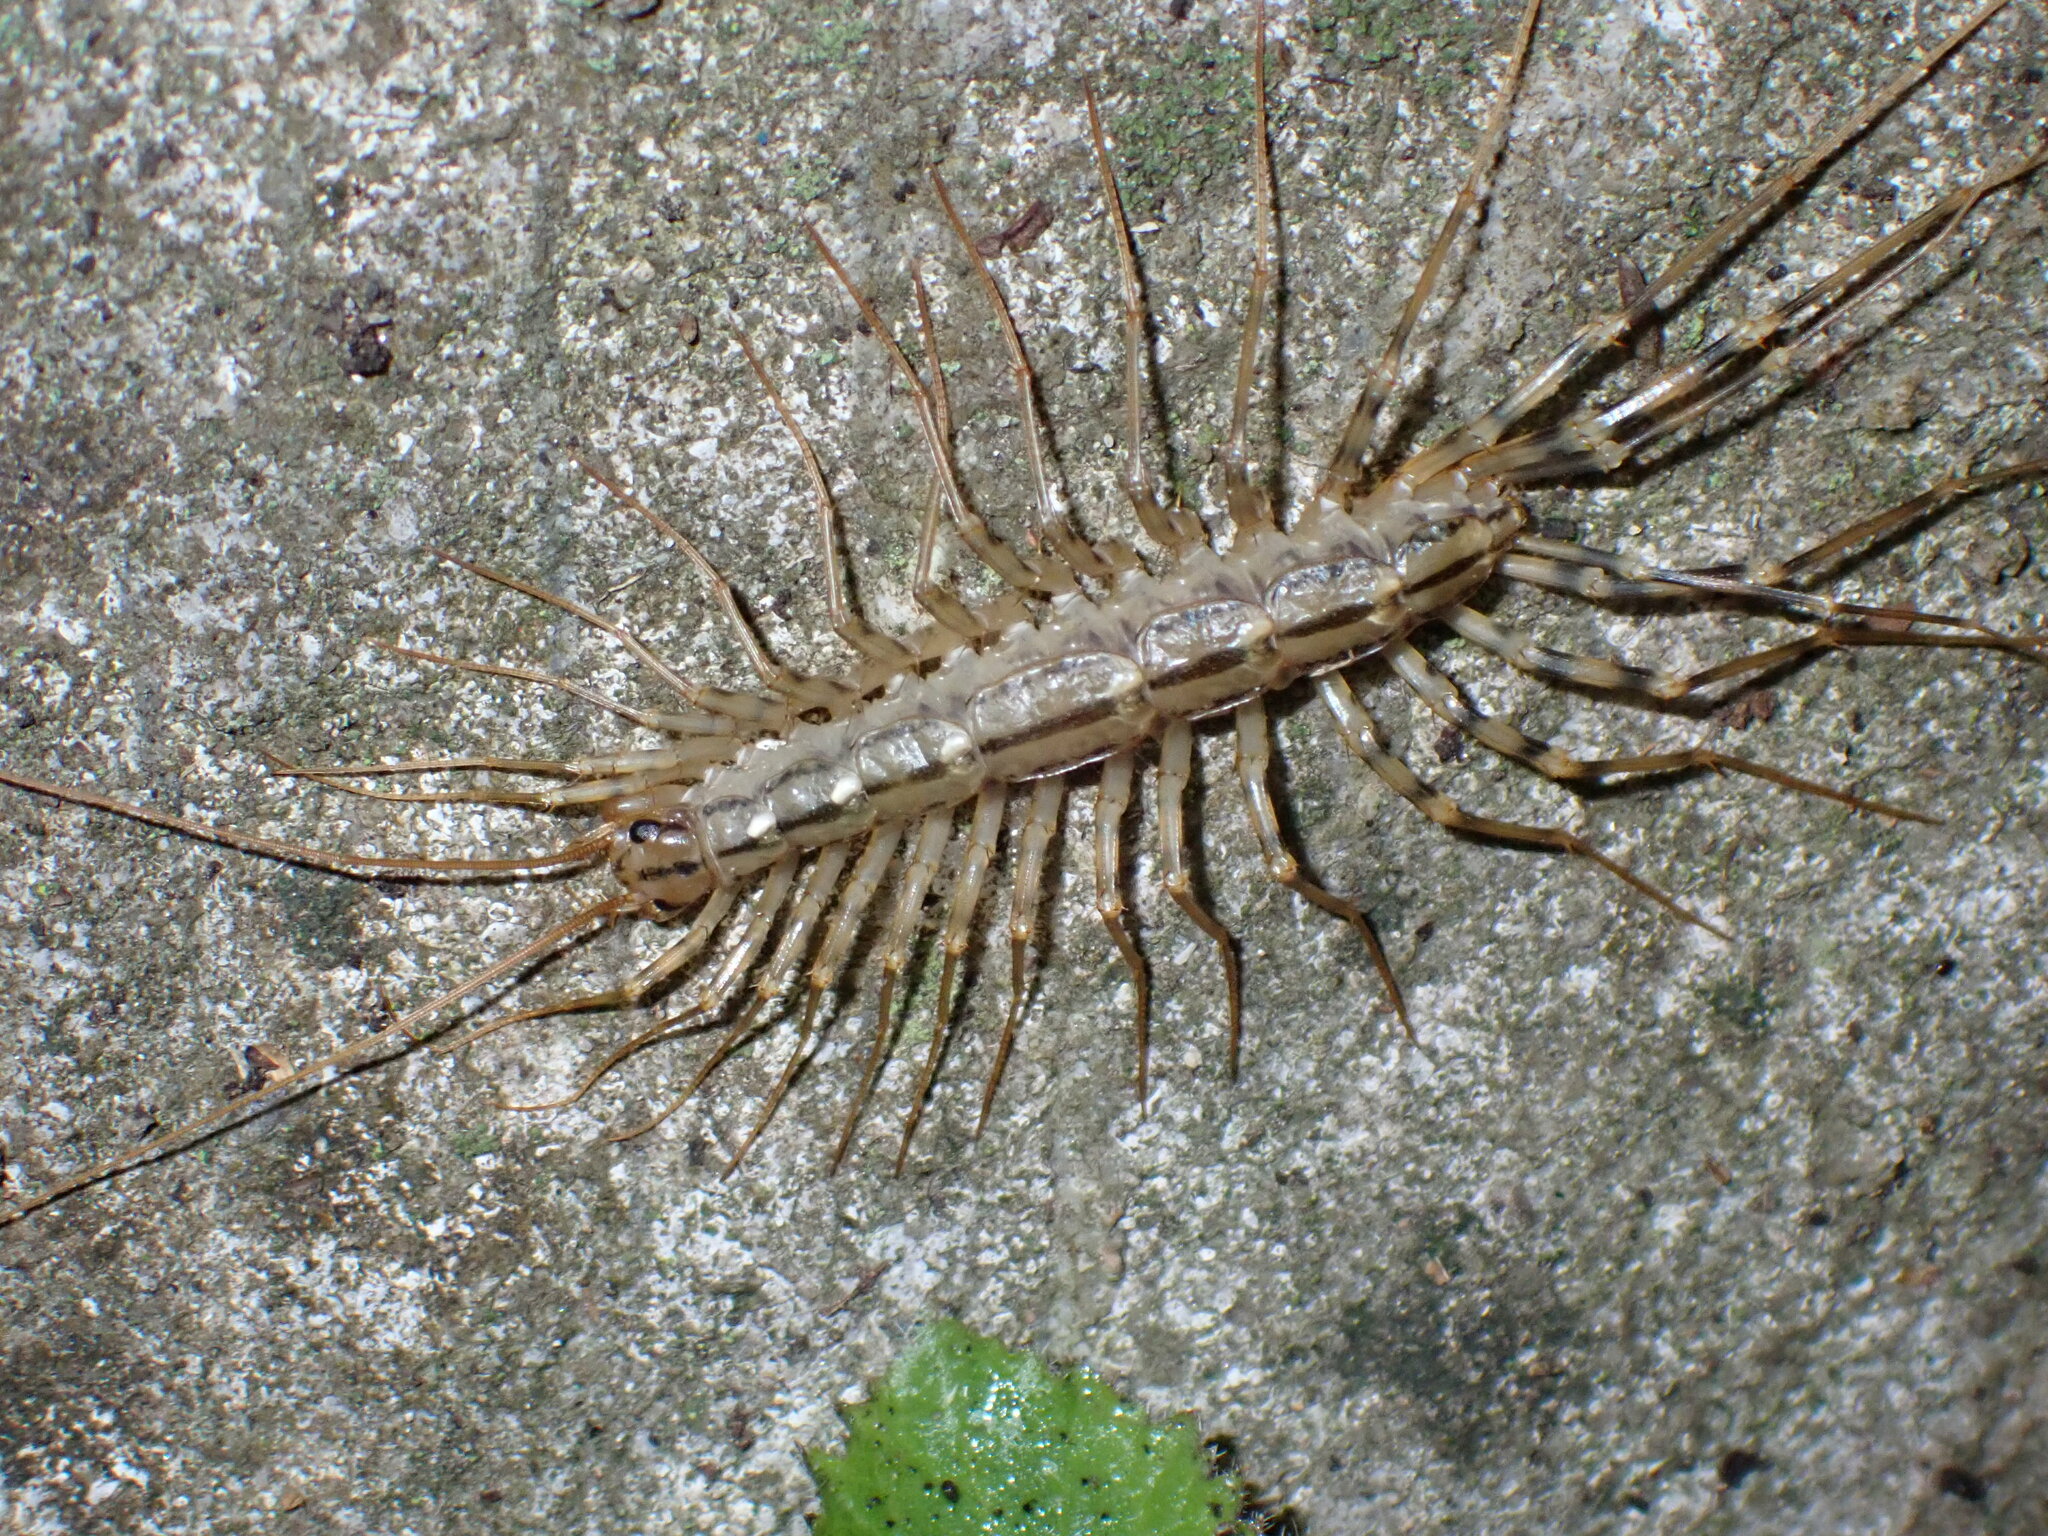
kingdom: Animalia
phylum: Arthropoda
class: Chilopoda
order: Scutigeromorpha
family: Scutigeridae
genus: Scutigera
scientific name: Scutigera coleoptrata
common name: House centipede
